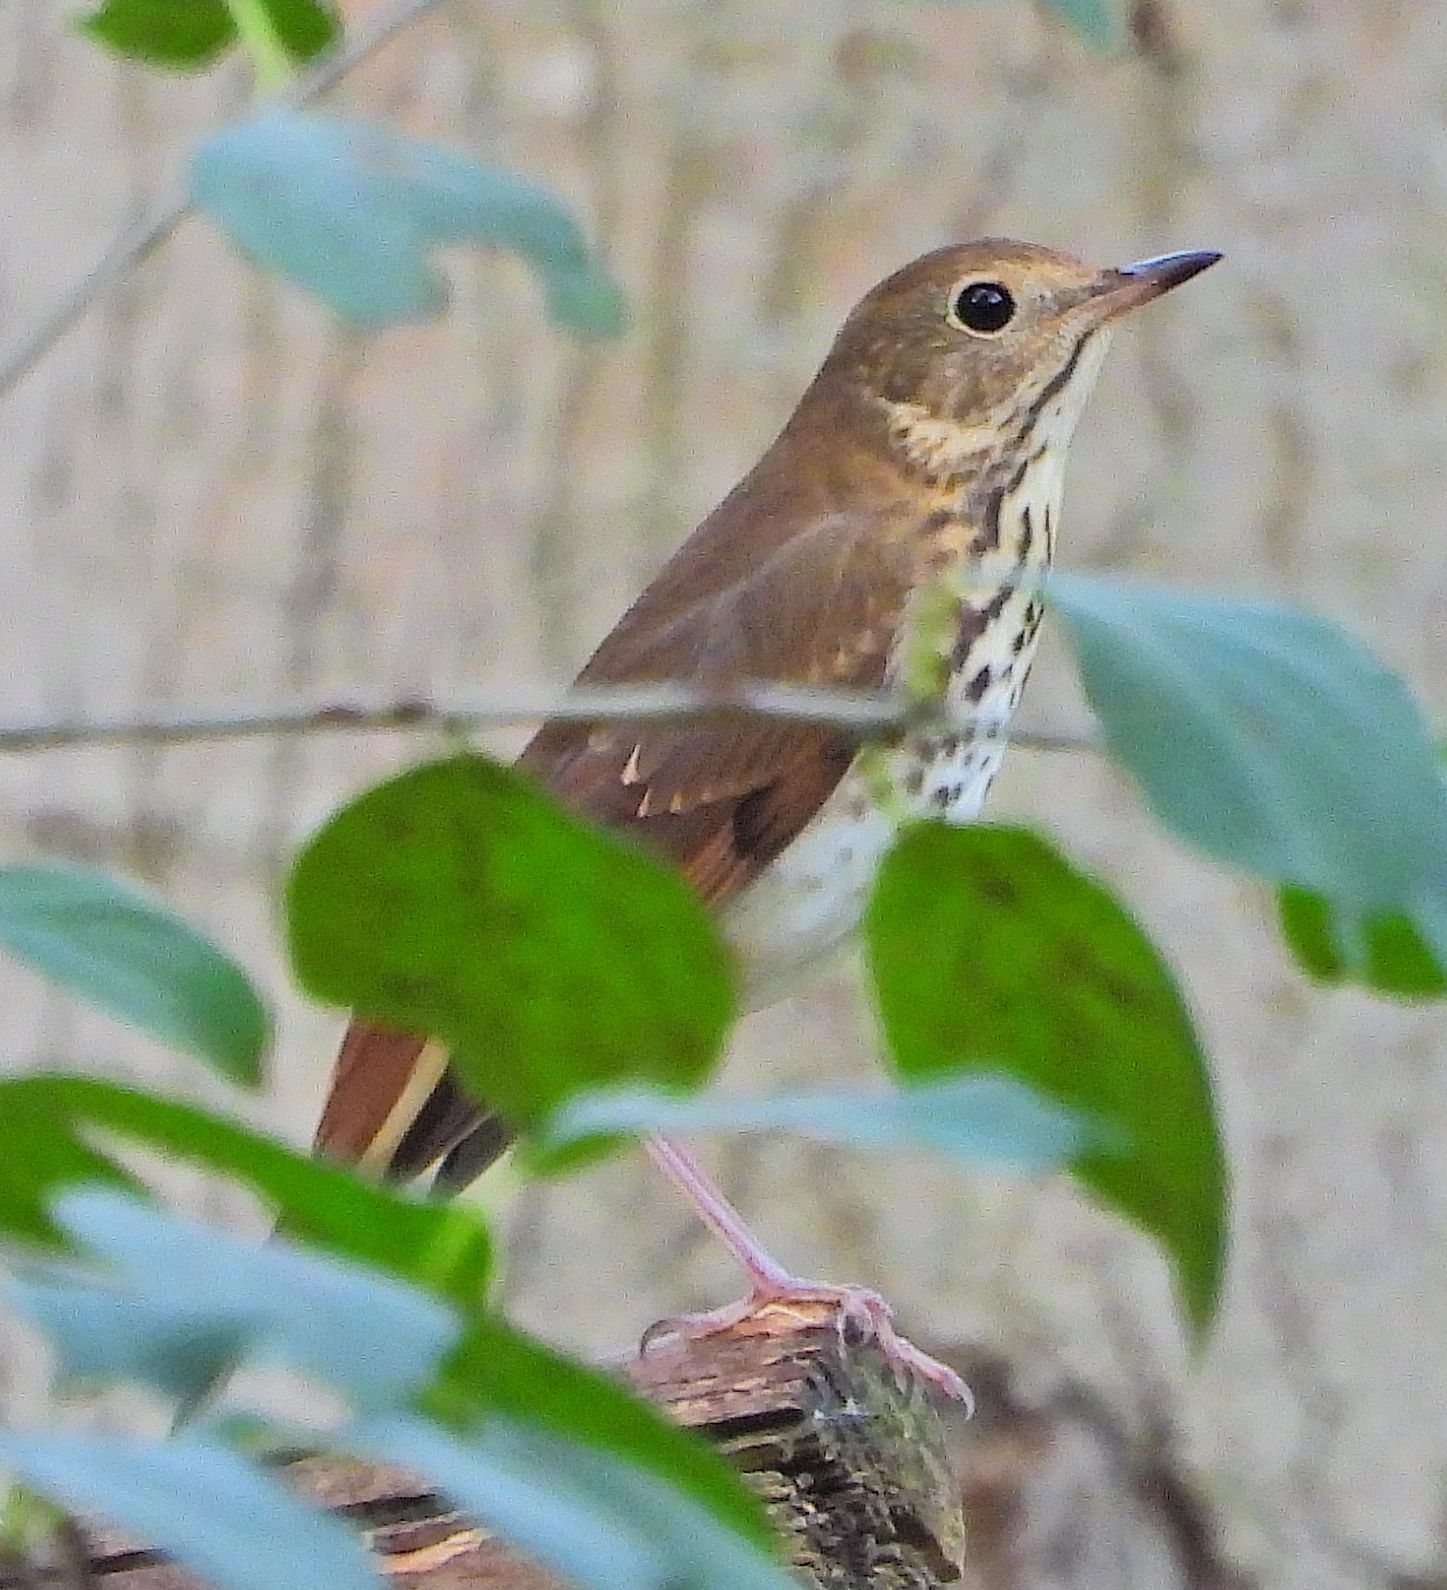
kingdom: Animalia
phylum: Chordata
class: Aves
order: Passeriformes
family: Turdidae
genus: Catharus
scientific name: Catharus guttatus
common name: Hermit thrush
